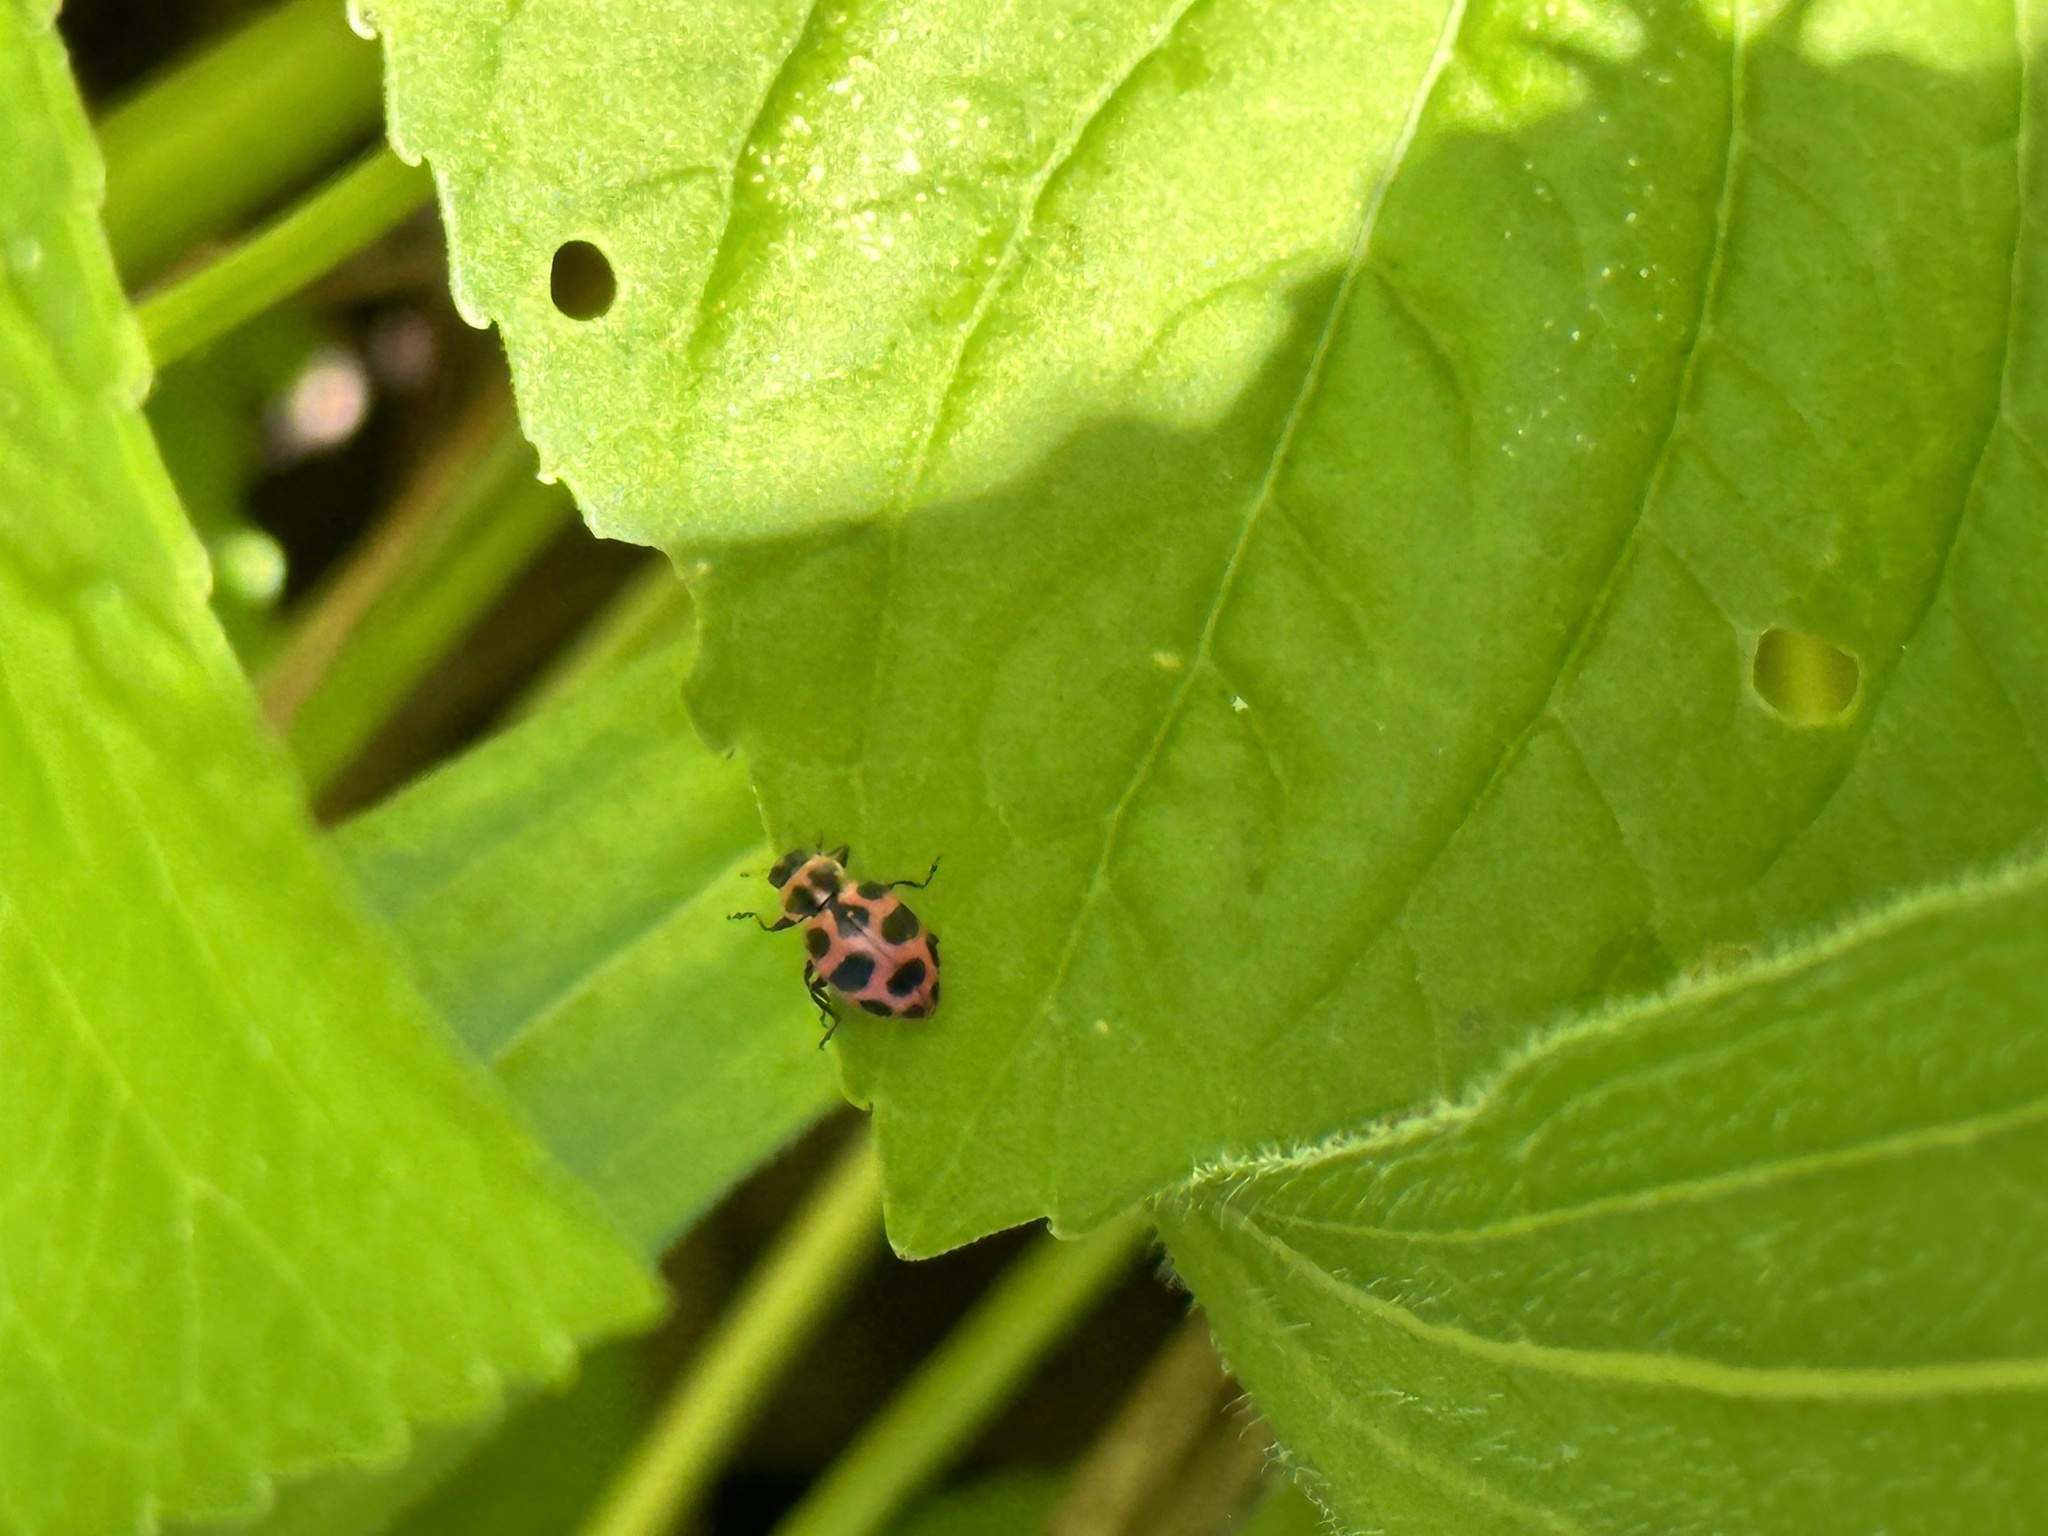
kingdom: Animalia
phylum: Arthropoda
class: Insecta
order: Coleoptera
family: Coccinellidae
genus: Coleomegilla
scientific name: Coleomegilla maculata
